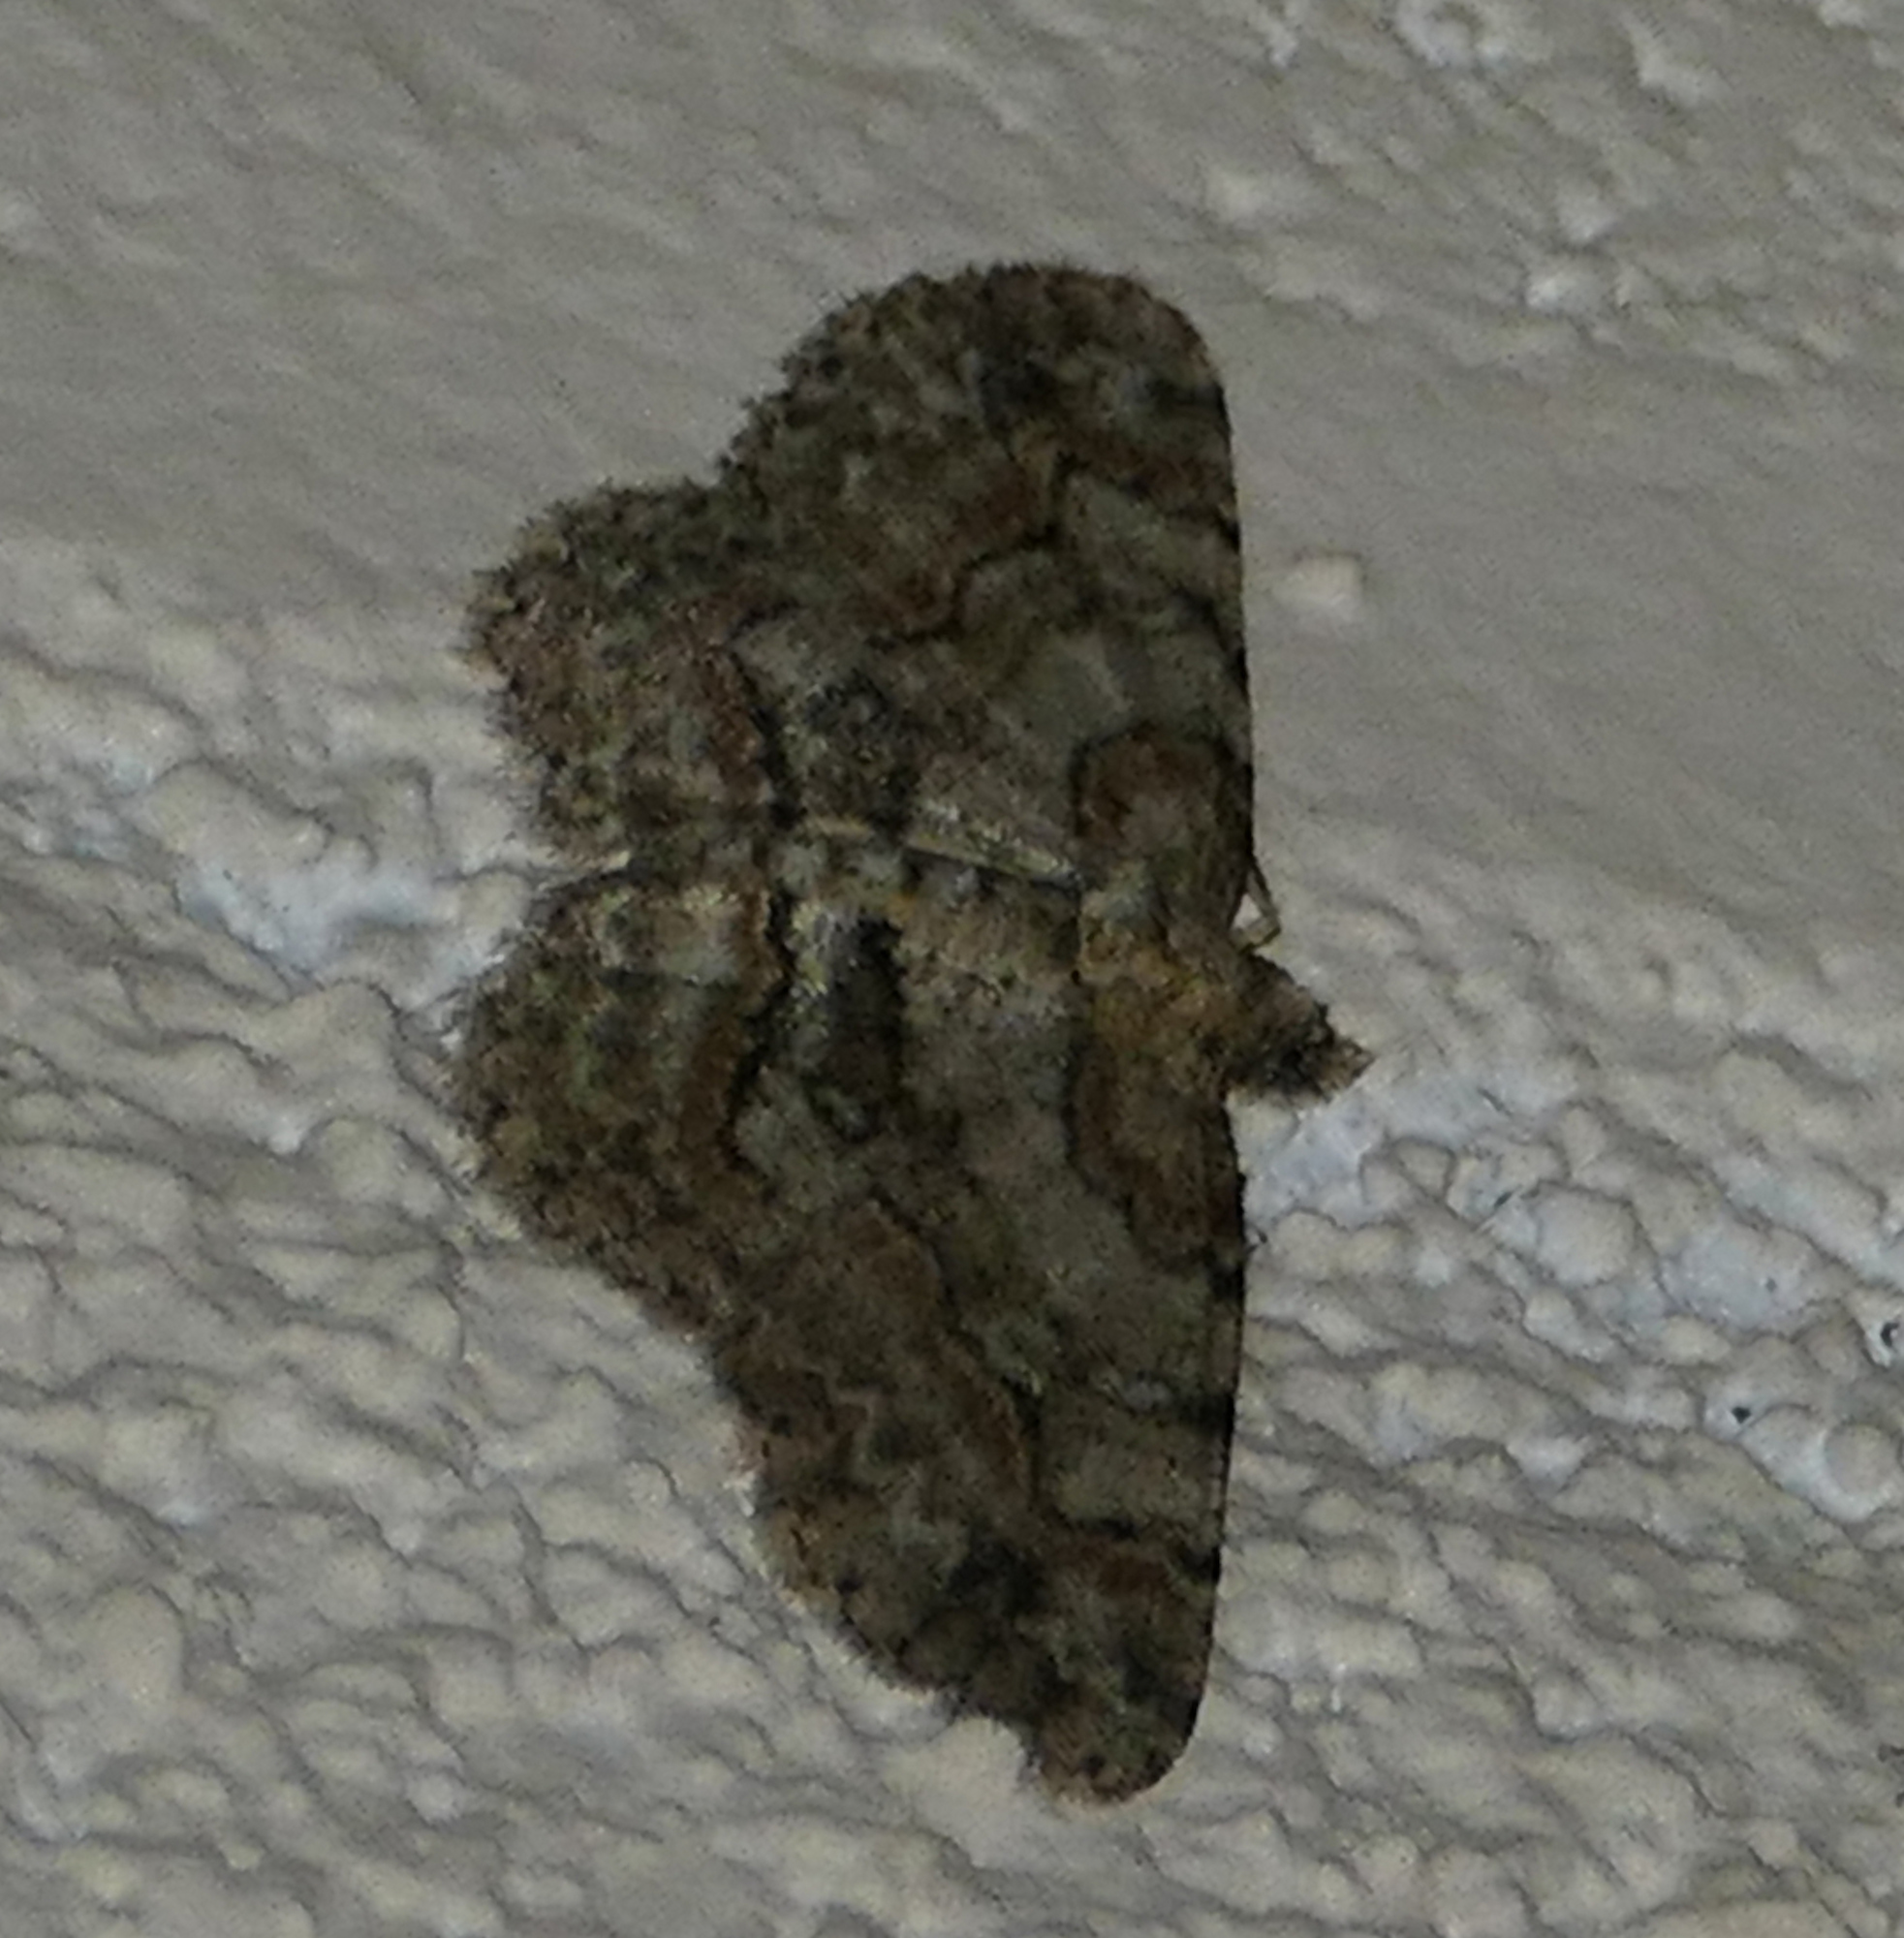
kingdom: Animalia
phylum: Arthropoda
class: Insecta
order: Lepidoptera
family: Geometridae
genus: Iridopsis
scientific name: Iridopsis ephyraria
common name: Pale-winged gray
